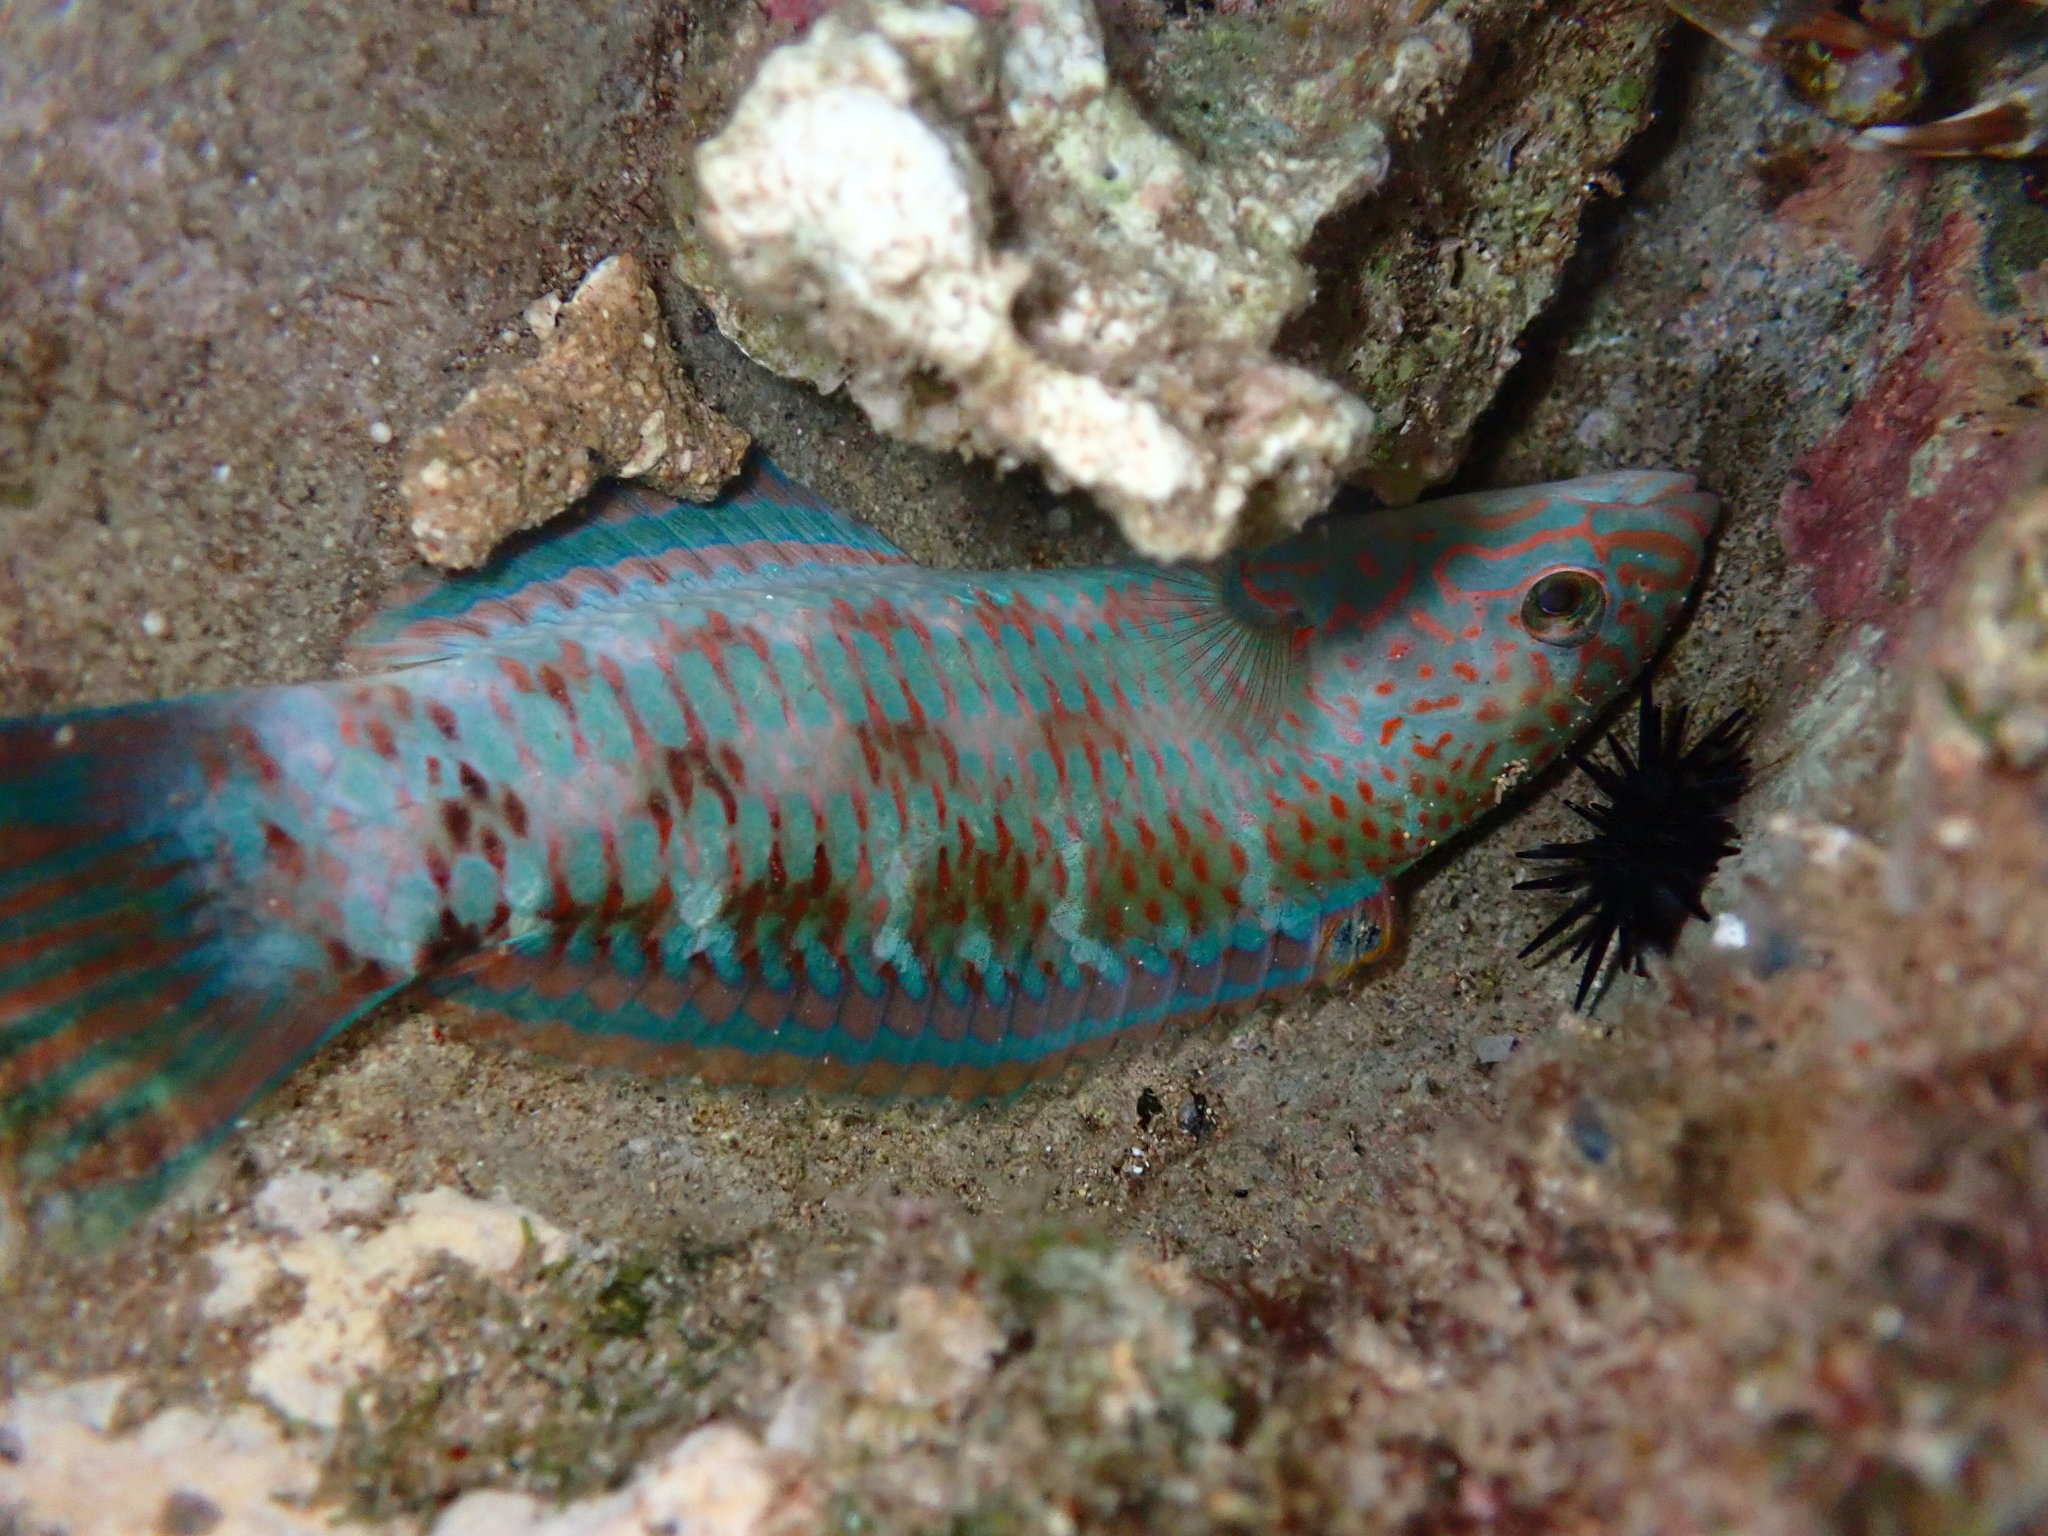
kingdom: Animalia
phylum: Chordata
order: Perciformes
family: Labridae
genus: Thalassoma
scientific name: Thalassoma trilobatum
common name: Christmas wrasse
